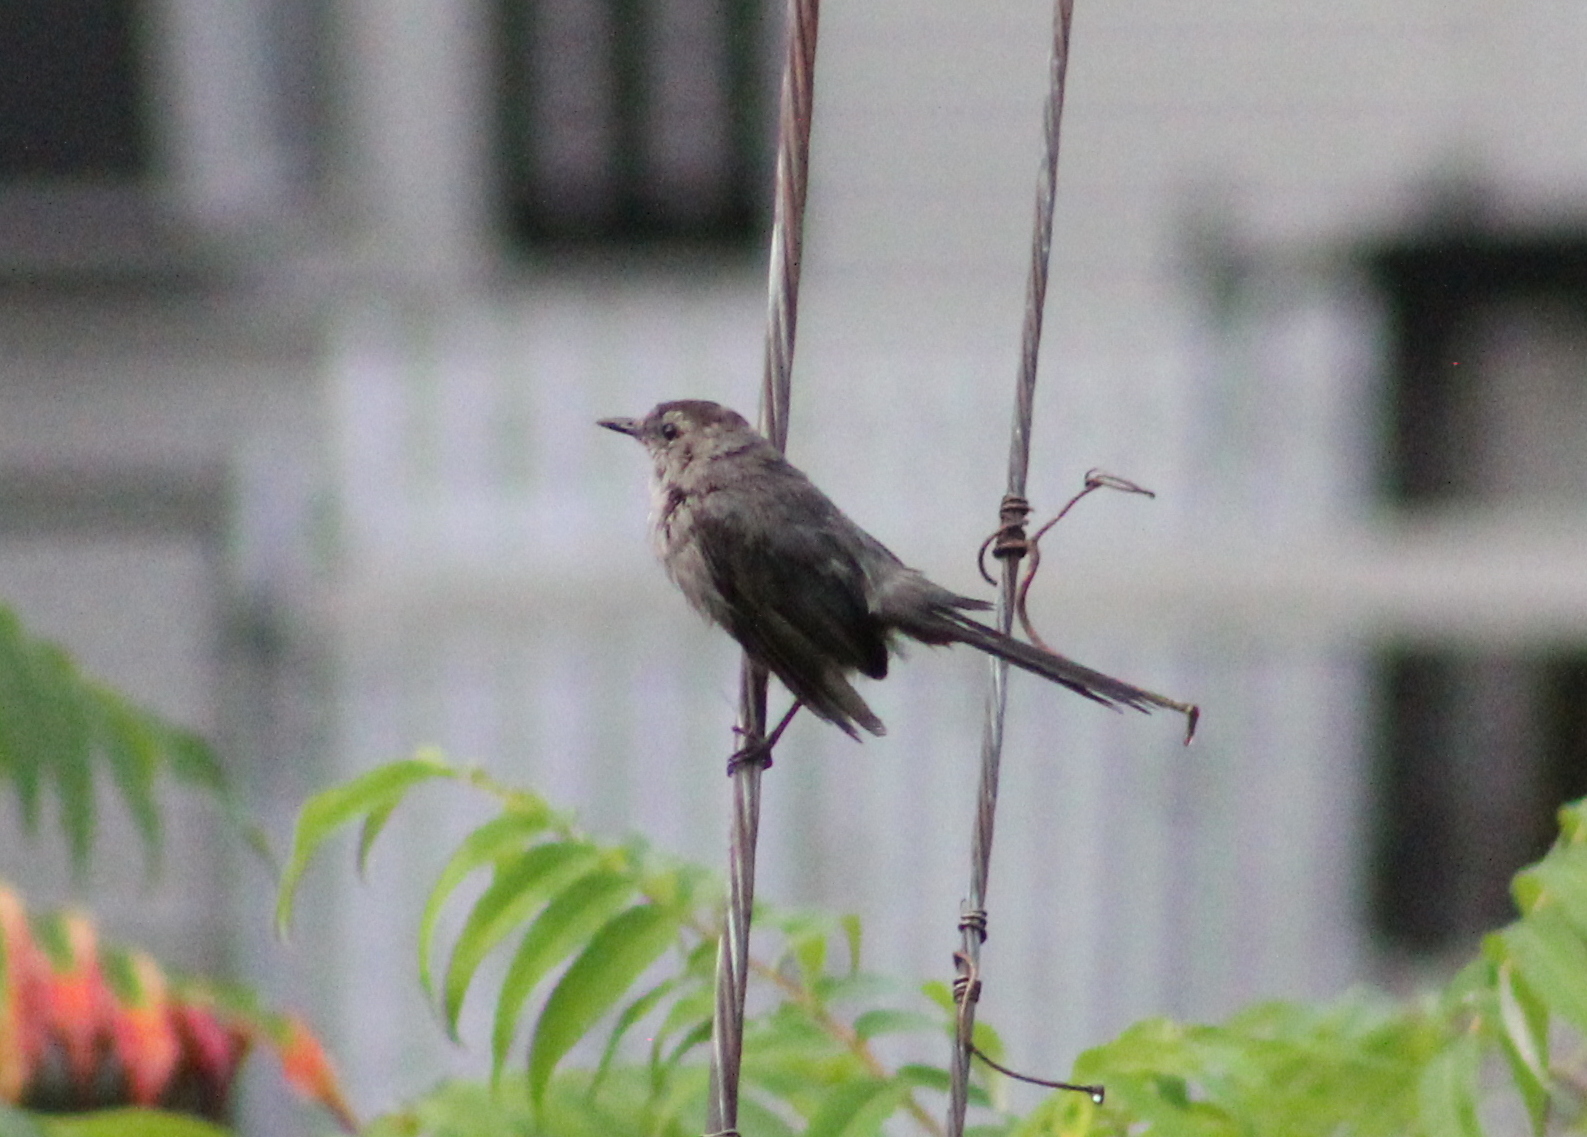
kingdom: Animalia
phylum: Chordata
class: Aves
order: Passeriformes
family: Mimidae
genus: Dumetella
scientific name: Dumetella carolinensis
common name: Gray catbird
